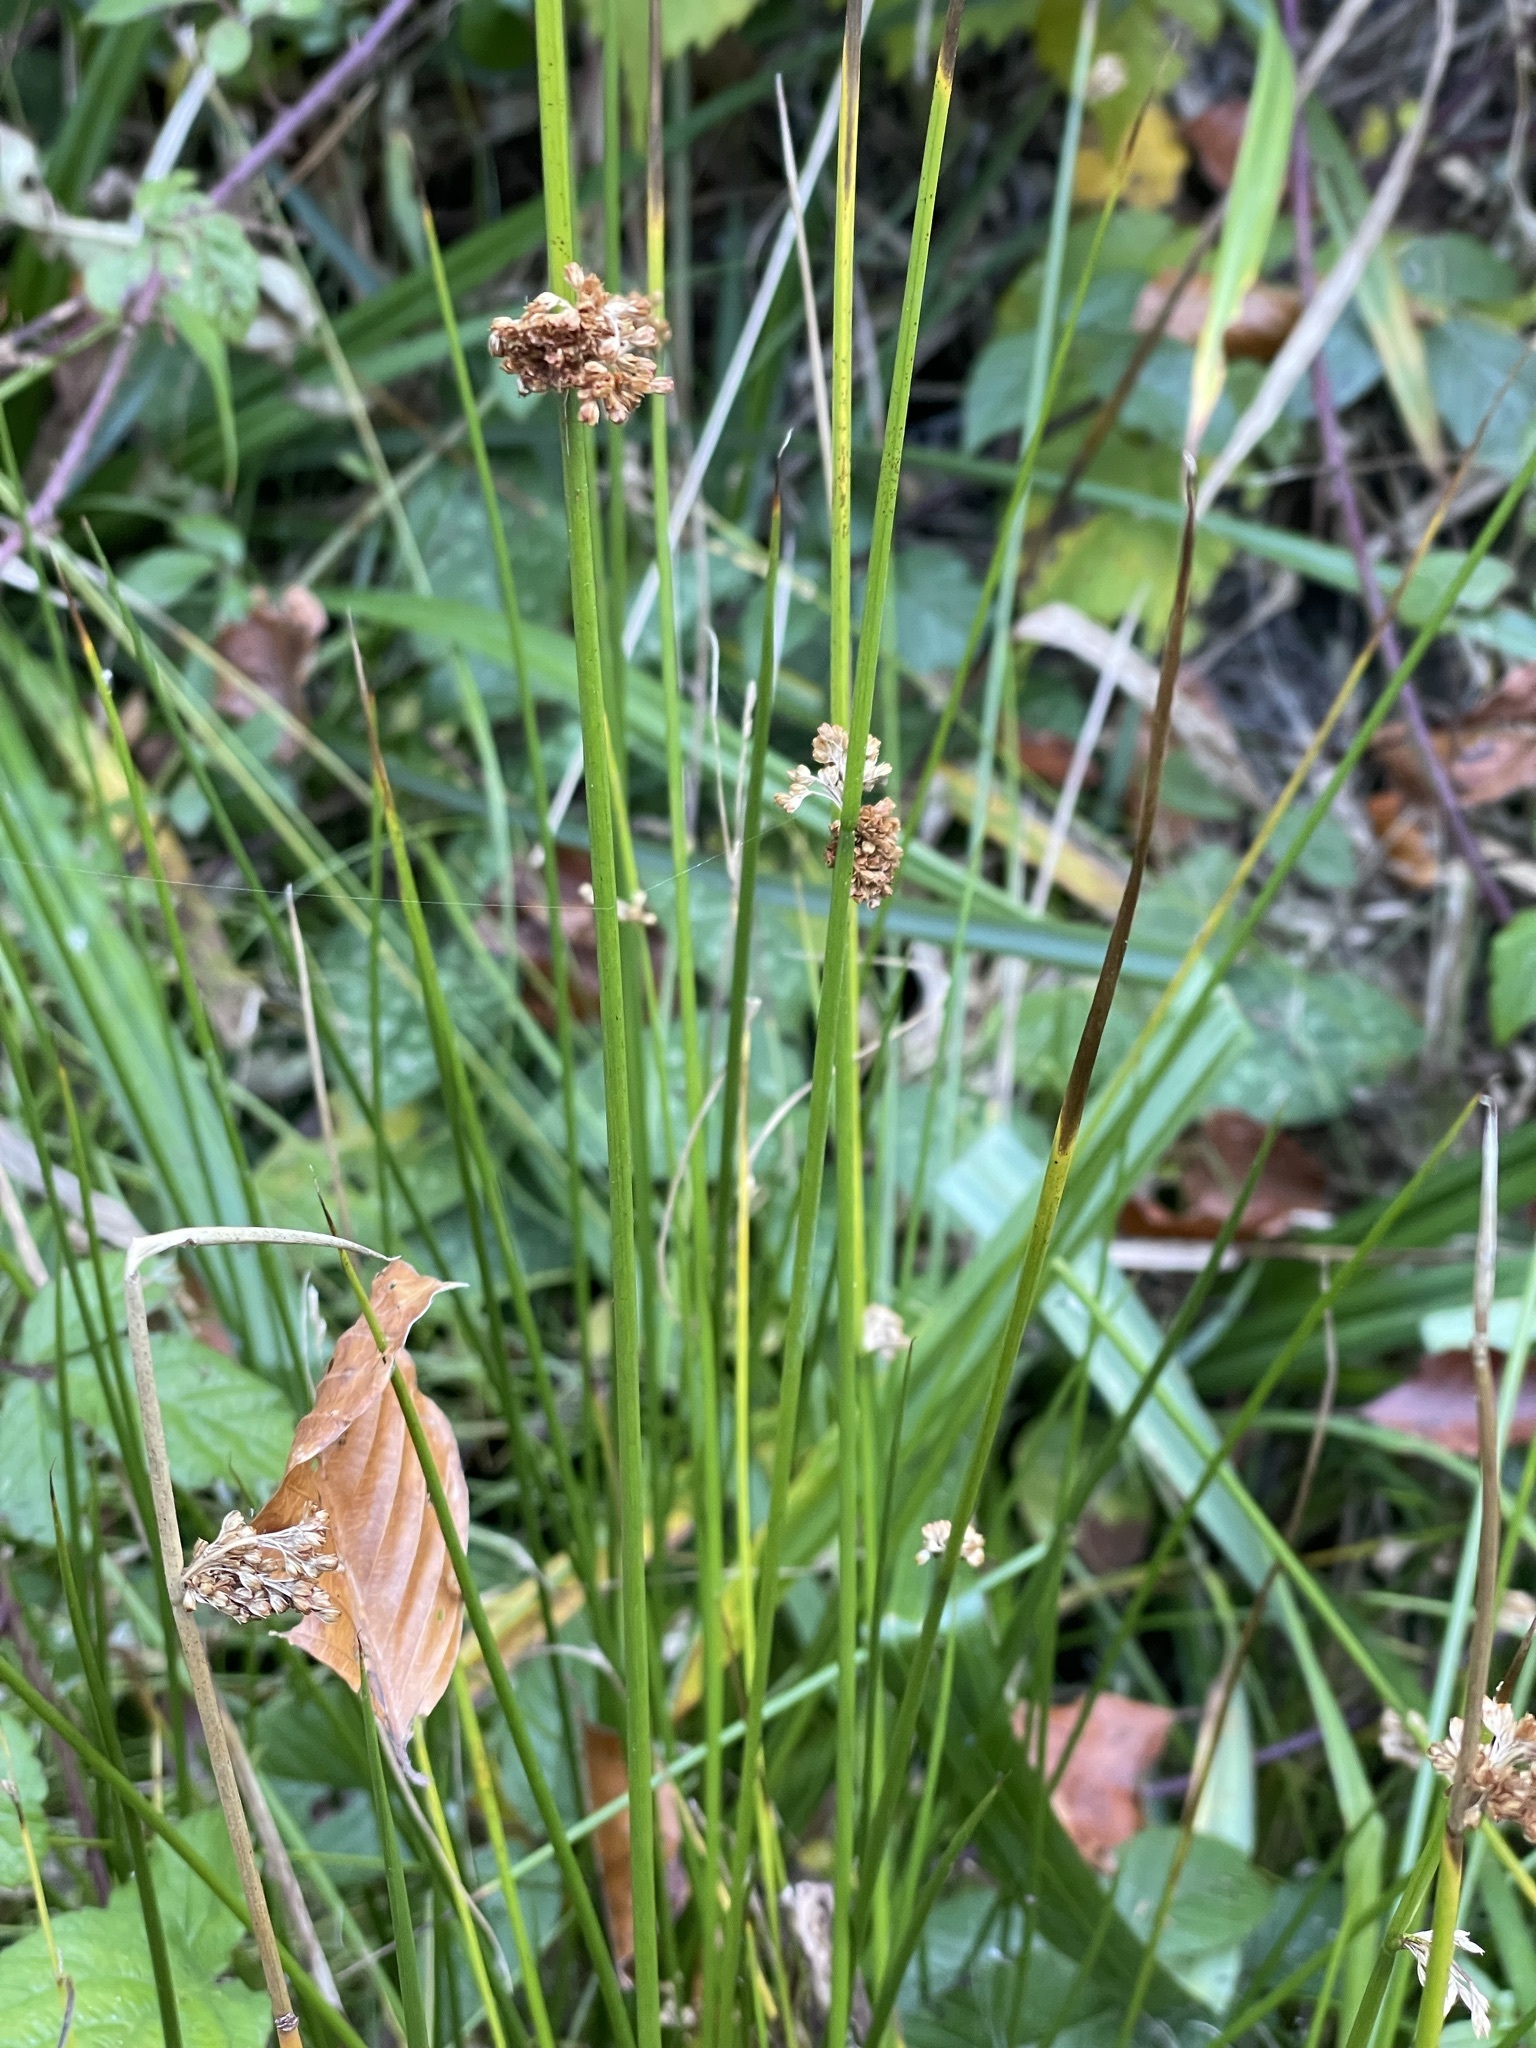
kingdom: Plantae
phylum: Tracheophyta
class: Liliopsida
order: Poales
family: Juncaceae
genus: Juncus
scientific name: Juncus effusus
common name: Soft rush
